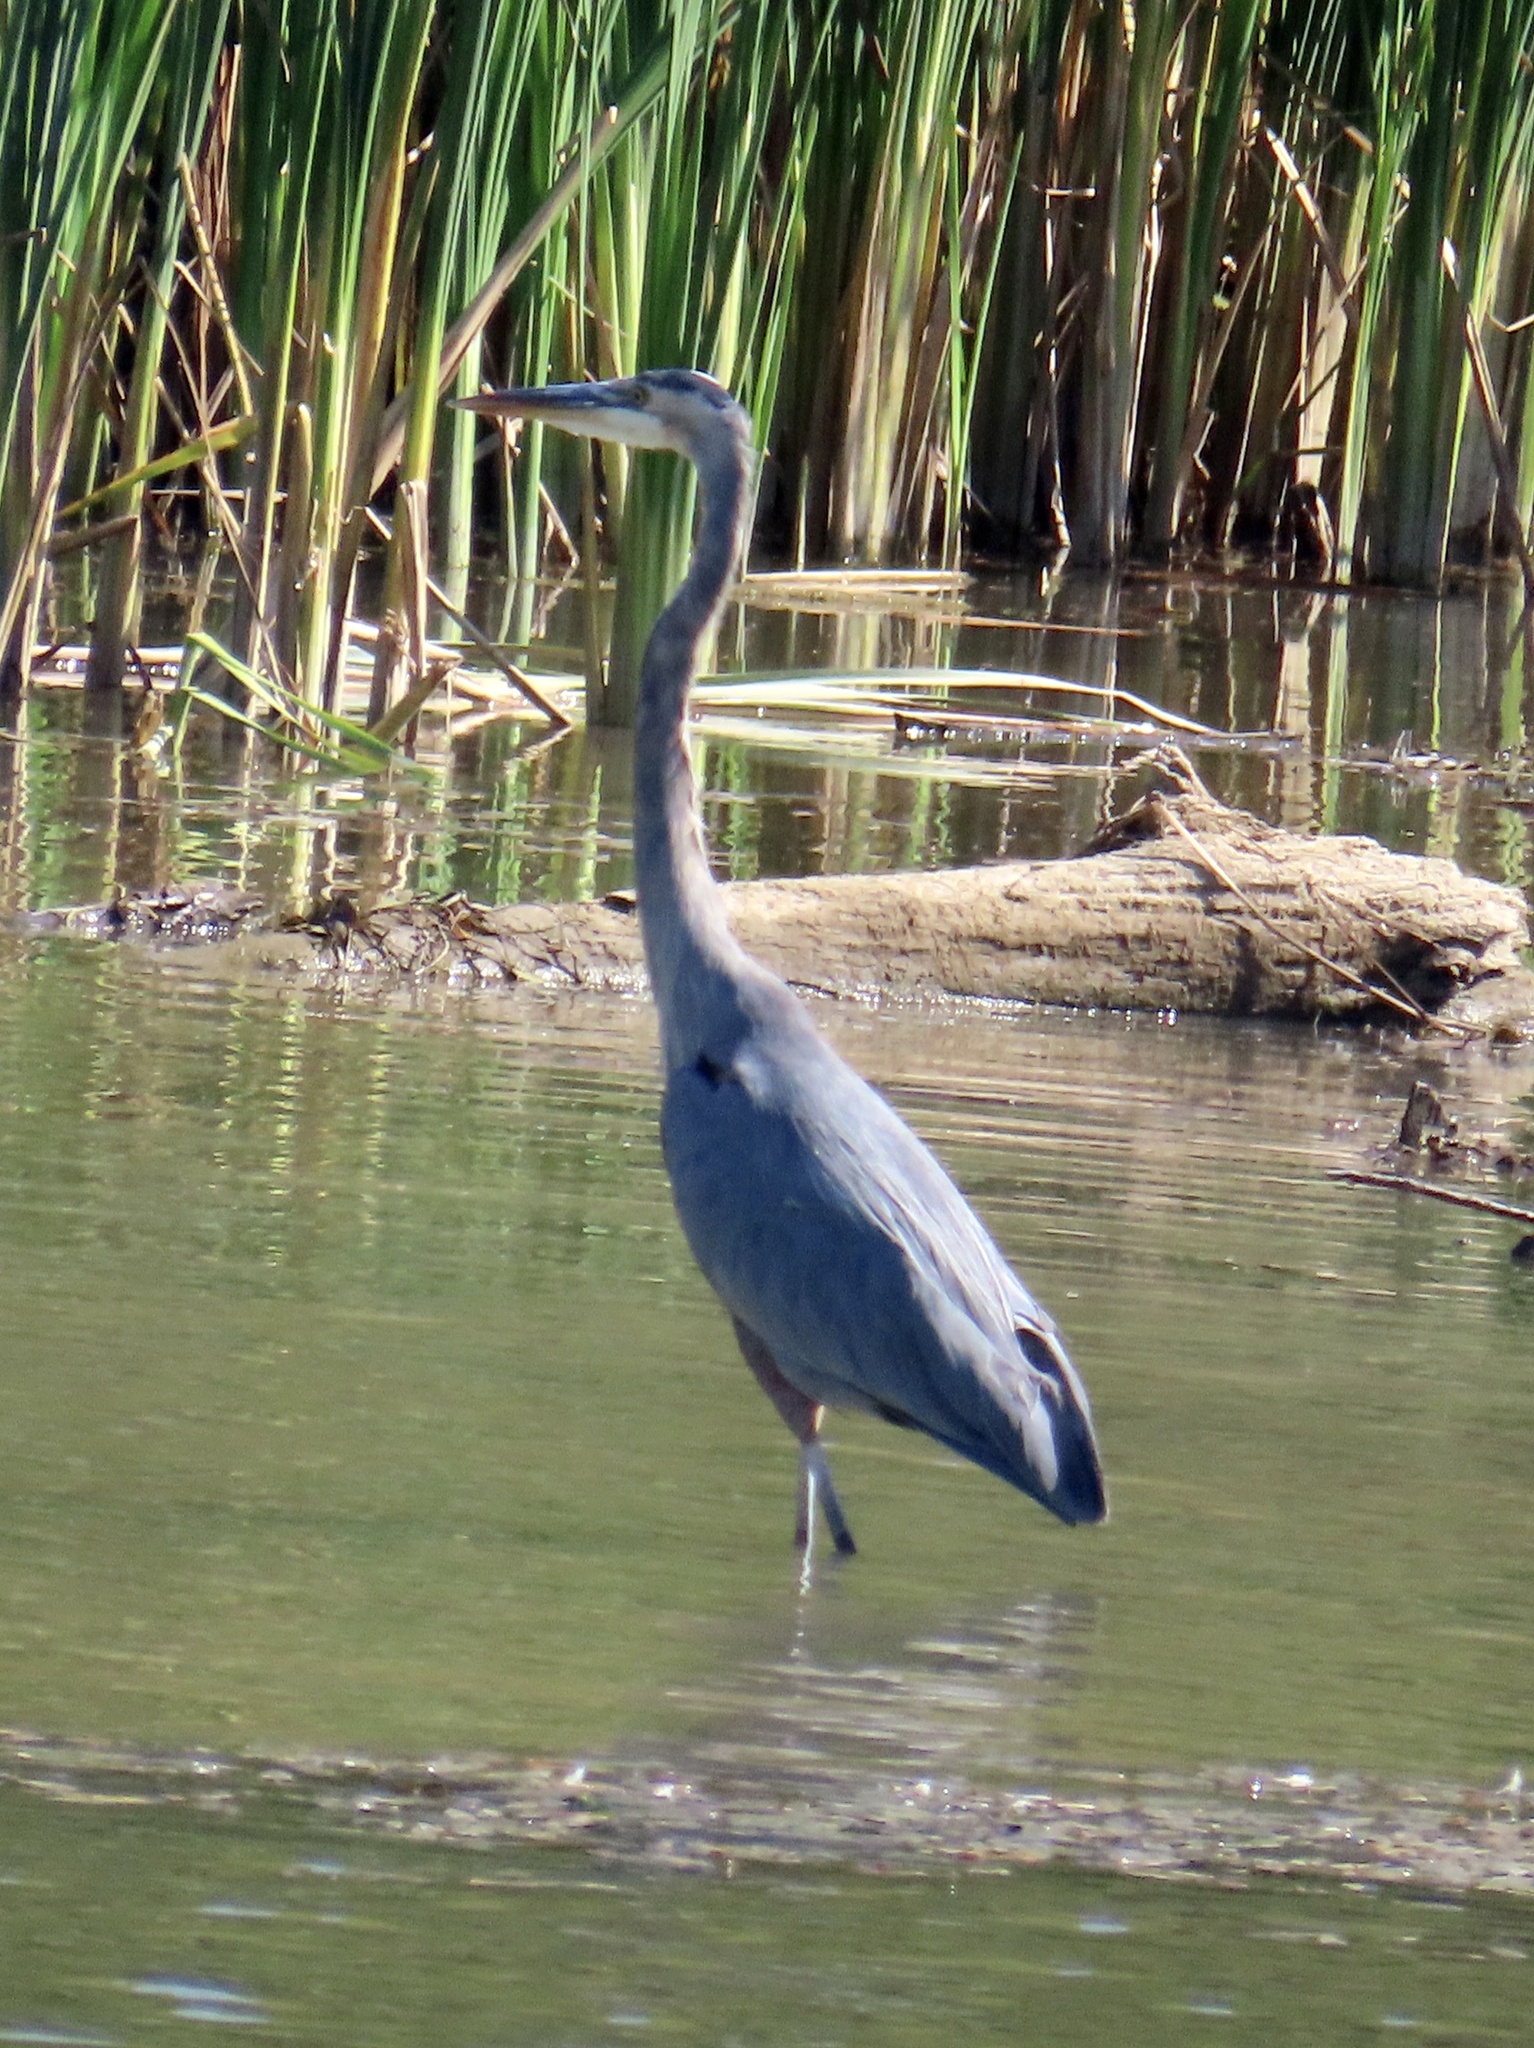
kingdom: Animalia
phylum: Chordata
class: Aves
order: Pelecaniformes
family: Ardeidae
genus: Ardea
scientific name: Ardea herodias
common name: Great blue heron
